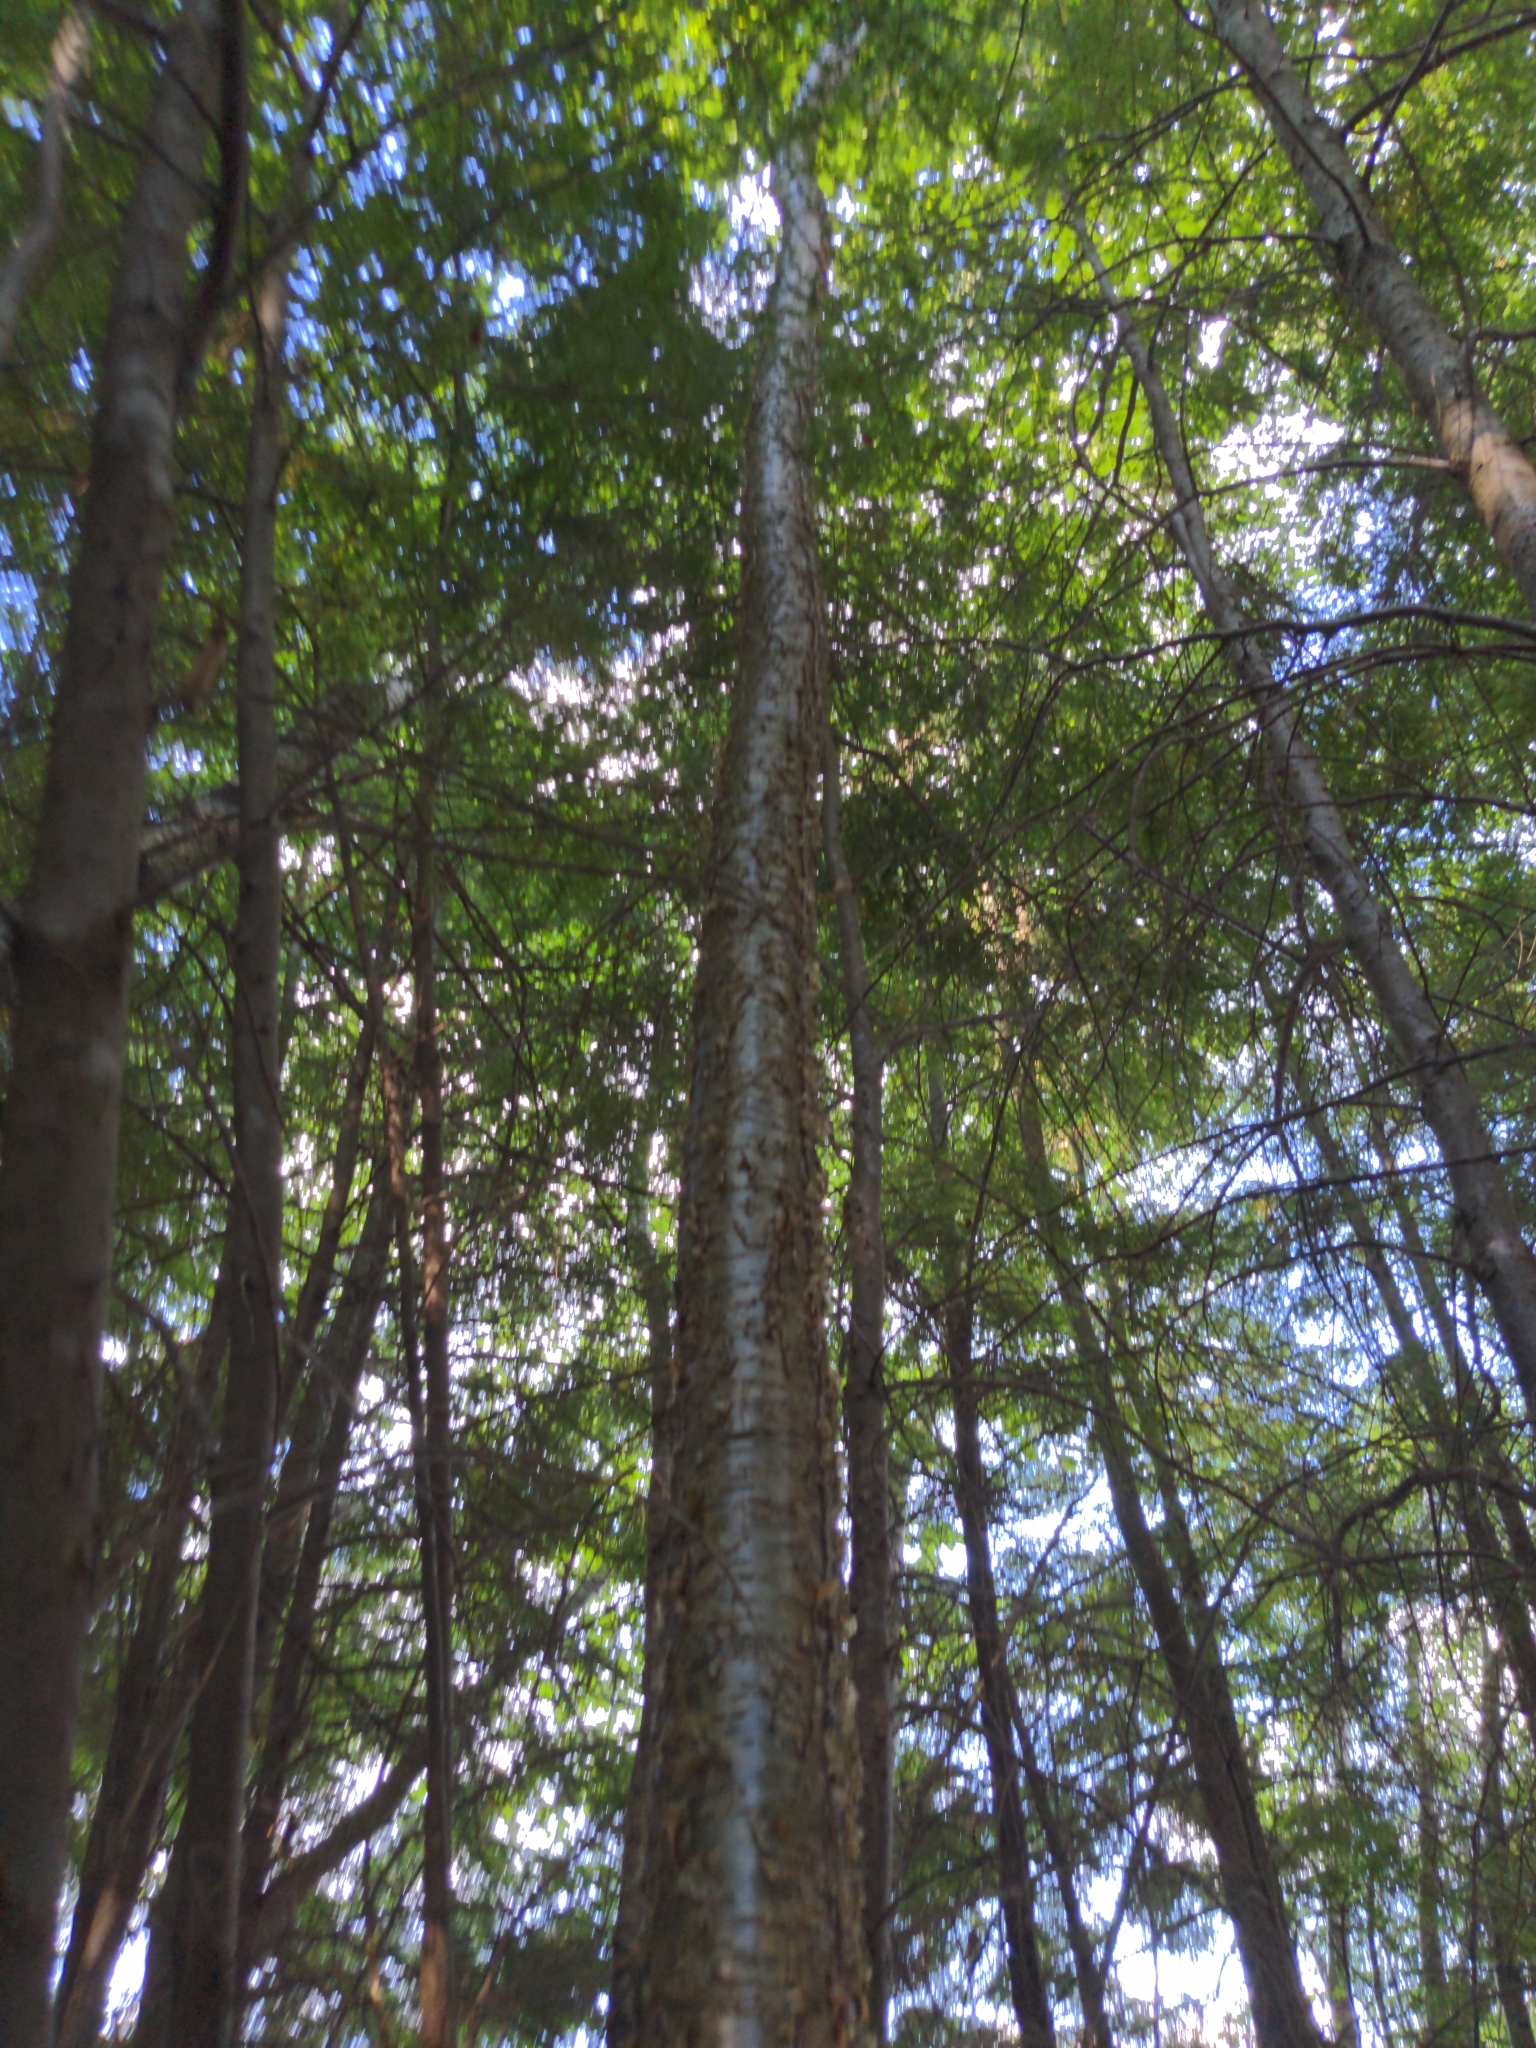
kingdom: Plantae
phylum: Tracheophyta
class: Magnoliopsida
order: Fagales
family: Betulaceae
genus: Betula
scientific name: Betula alleghaniensis
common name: Yellow birch
